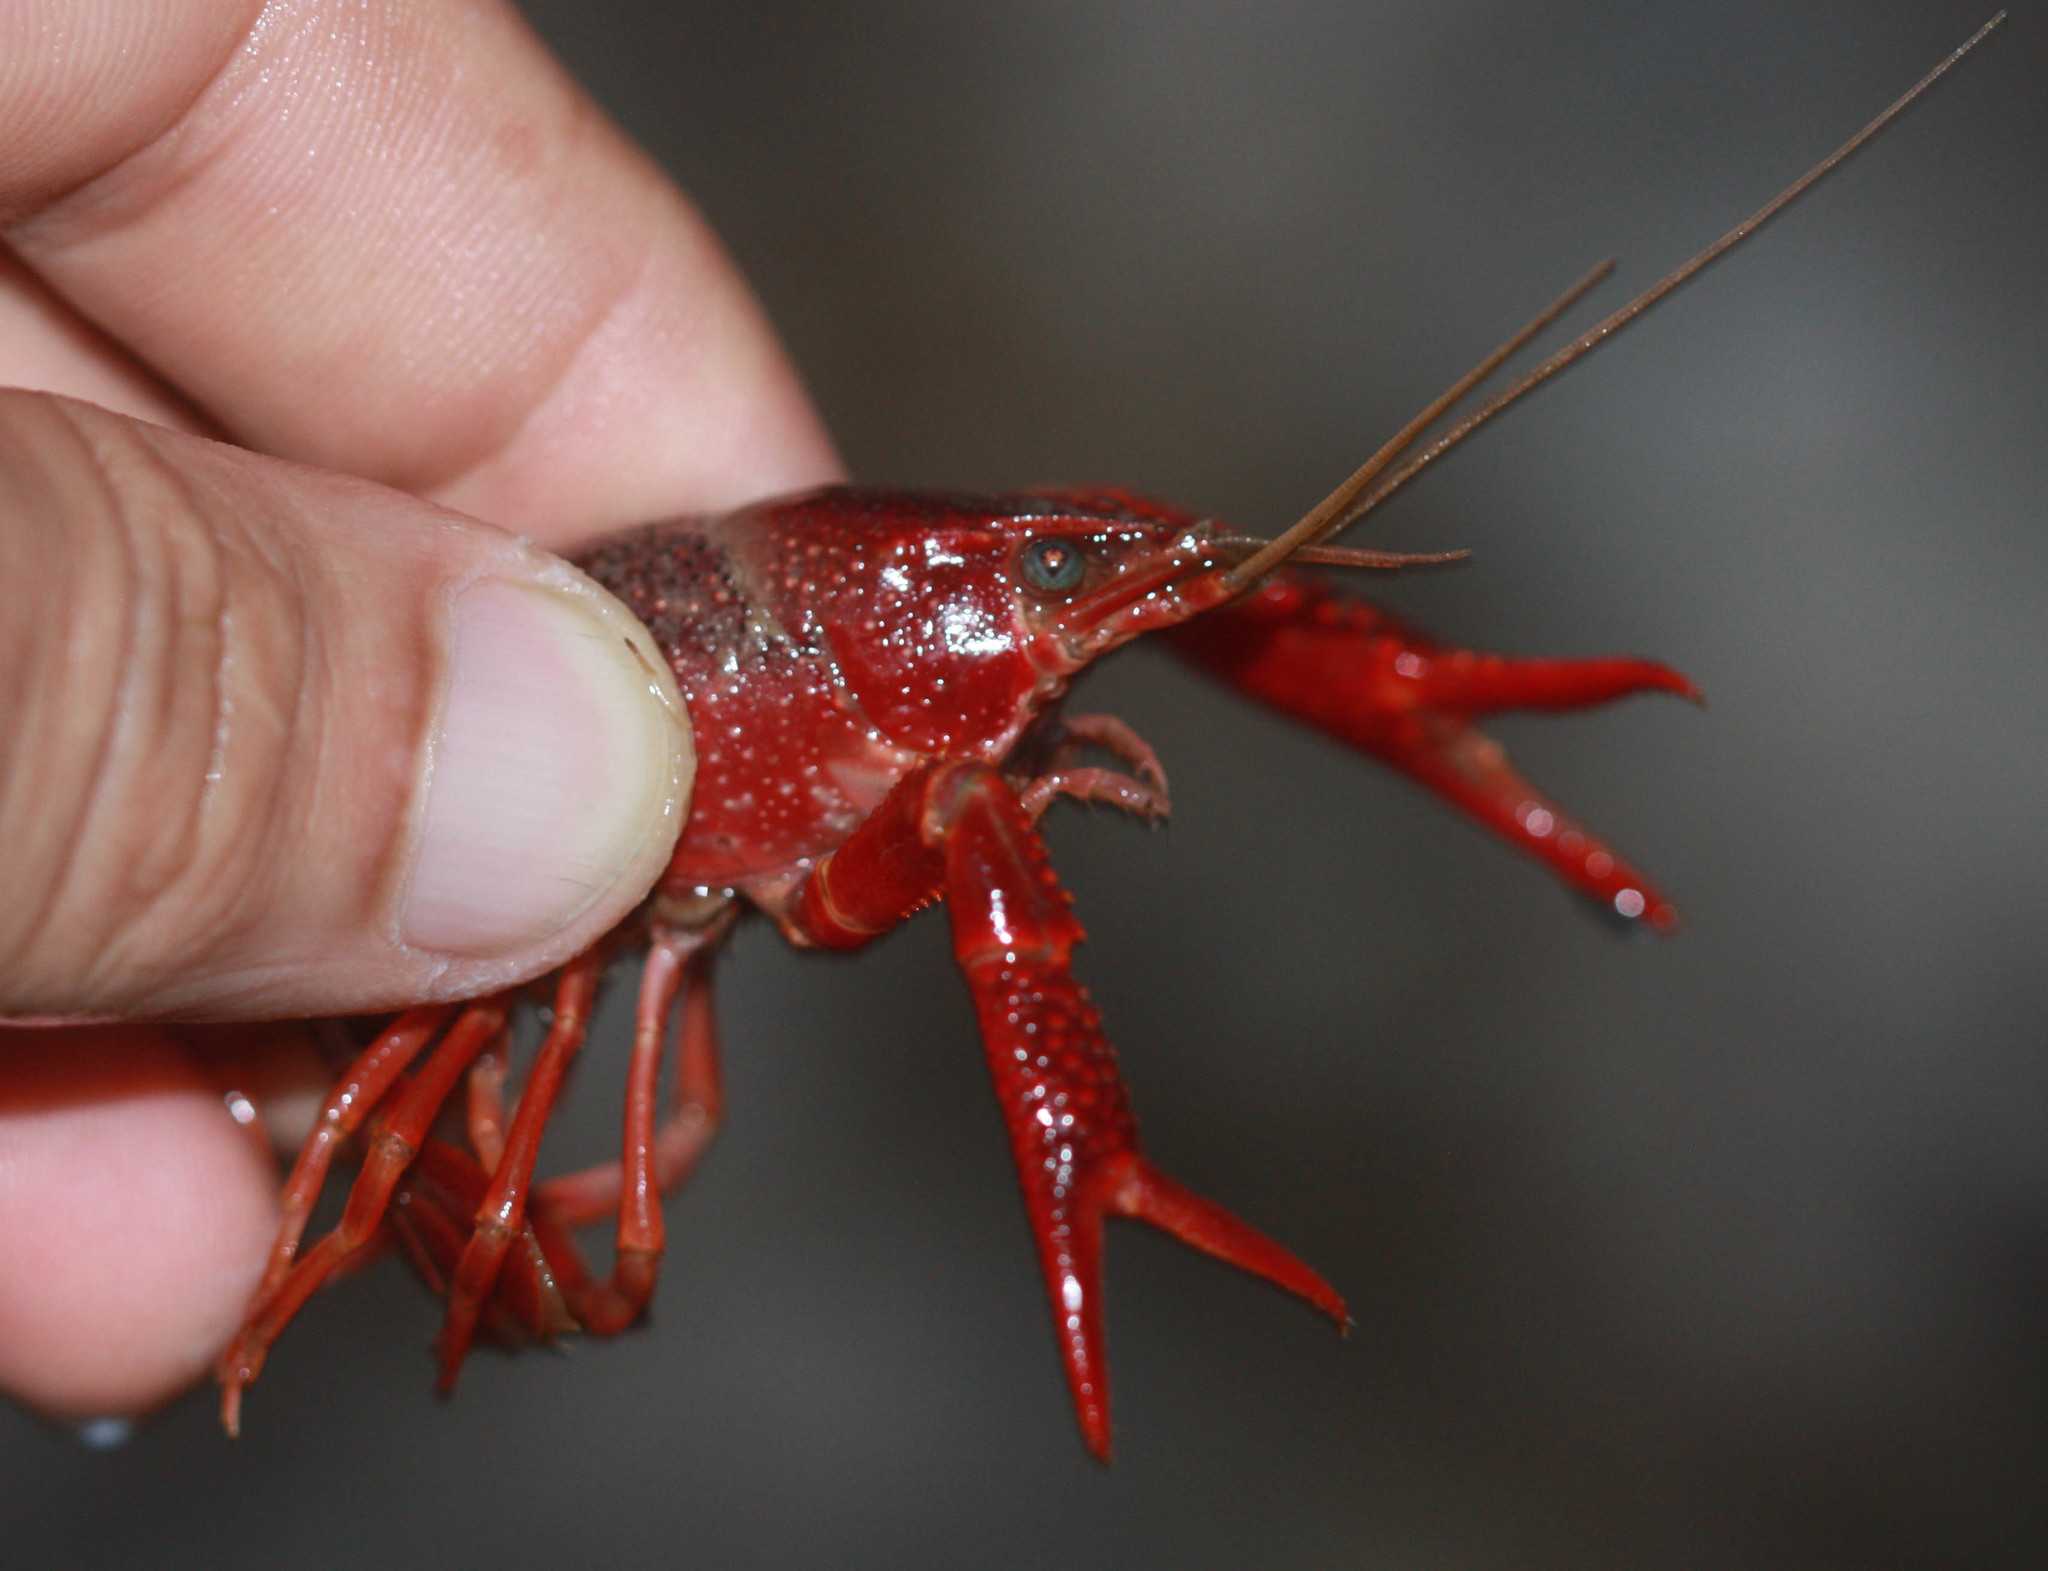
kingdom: Animalia
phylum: Arthropoda
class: Malacostraca
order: Decapoda
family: Cambaridae
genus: Procambarus
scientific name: Procambarus clarkii
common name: Red swamp crayfish
